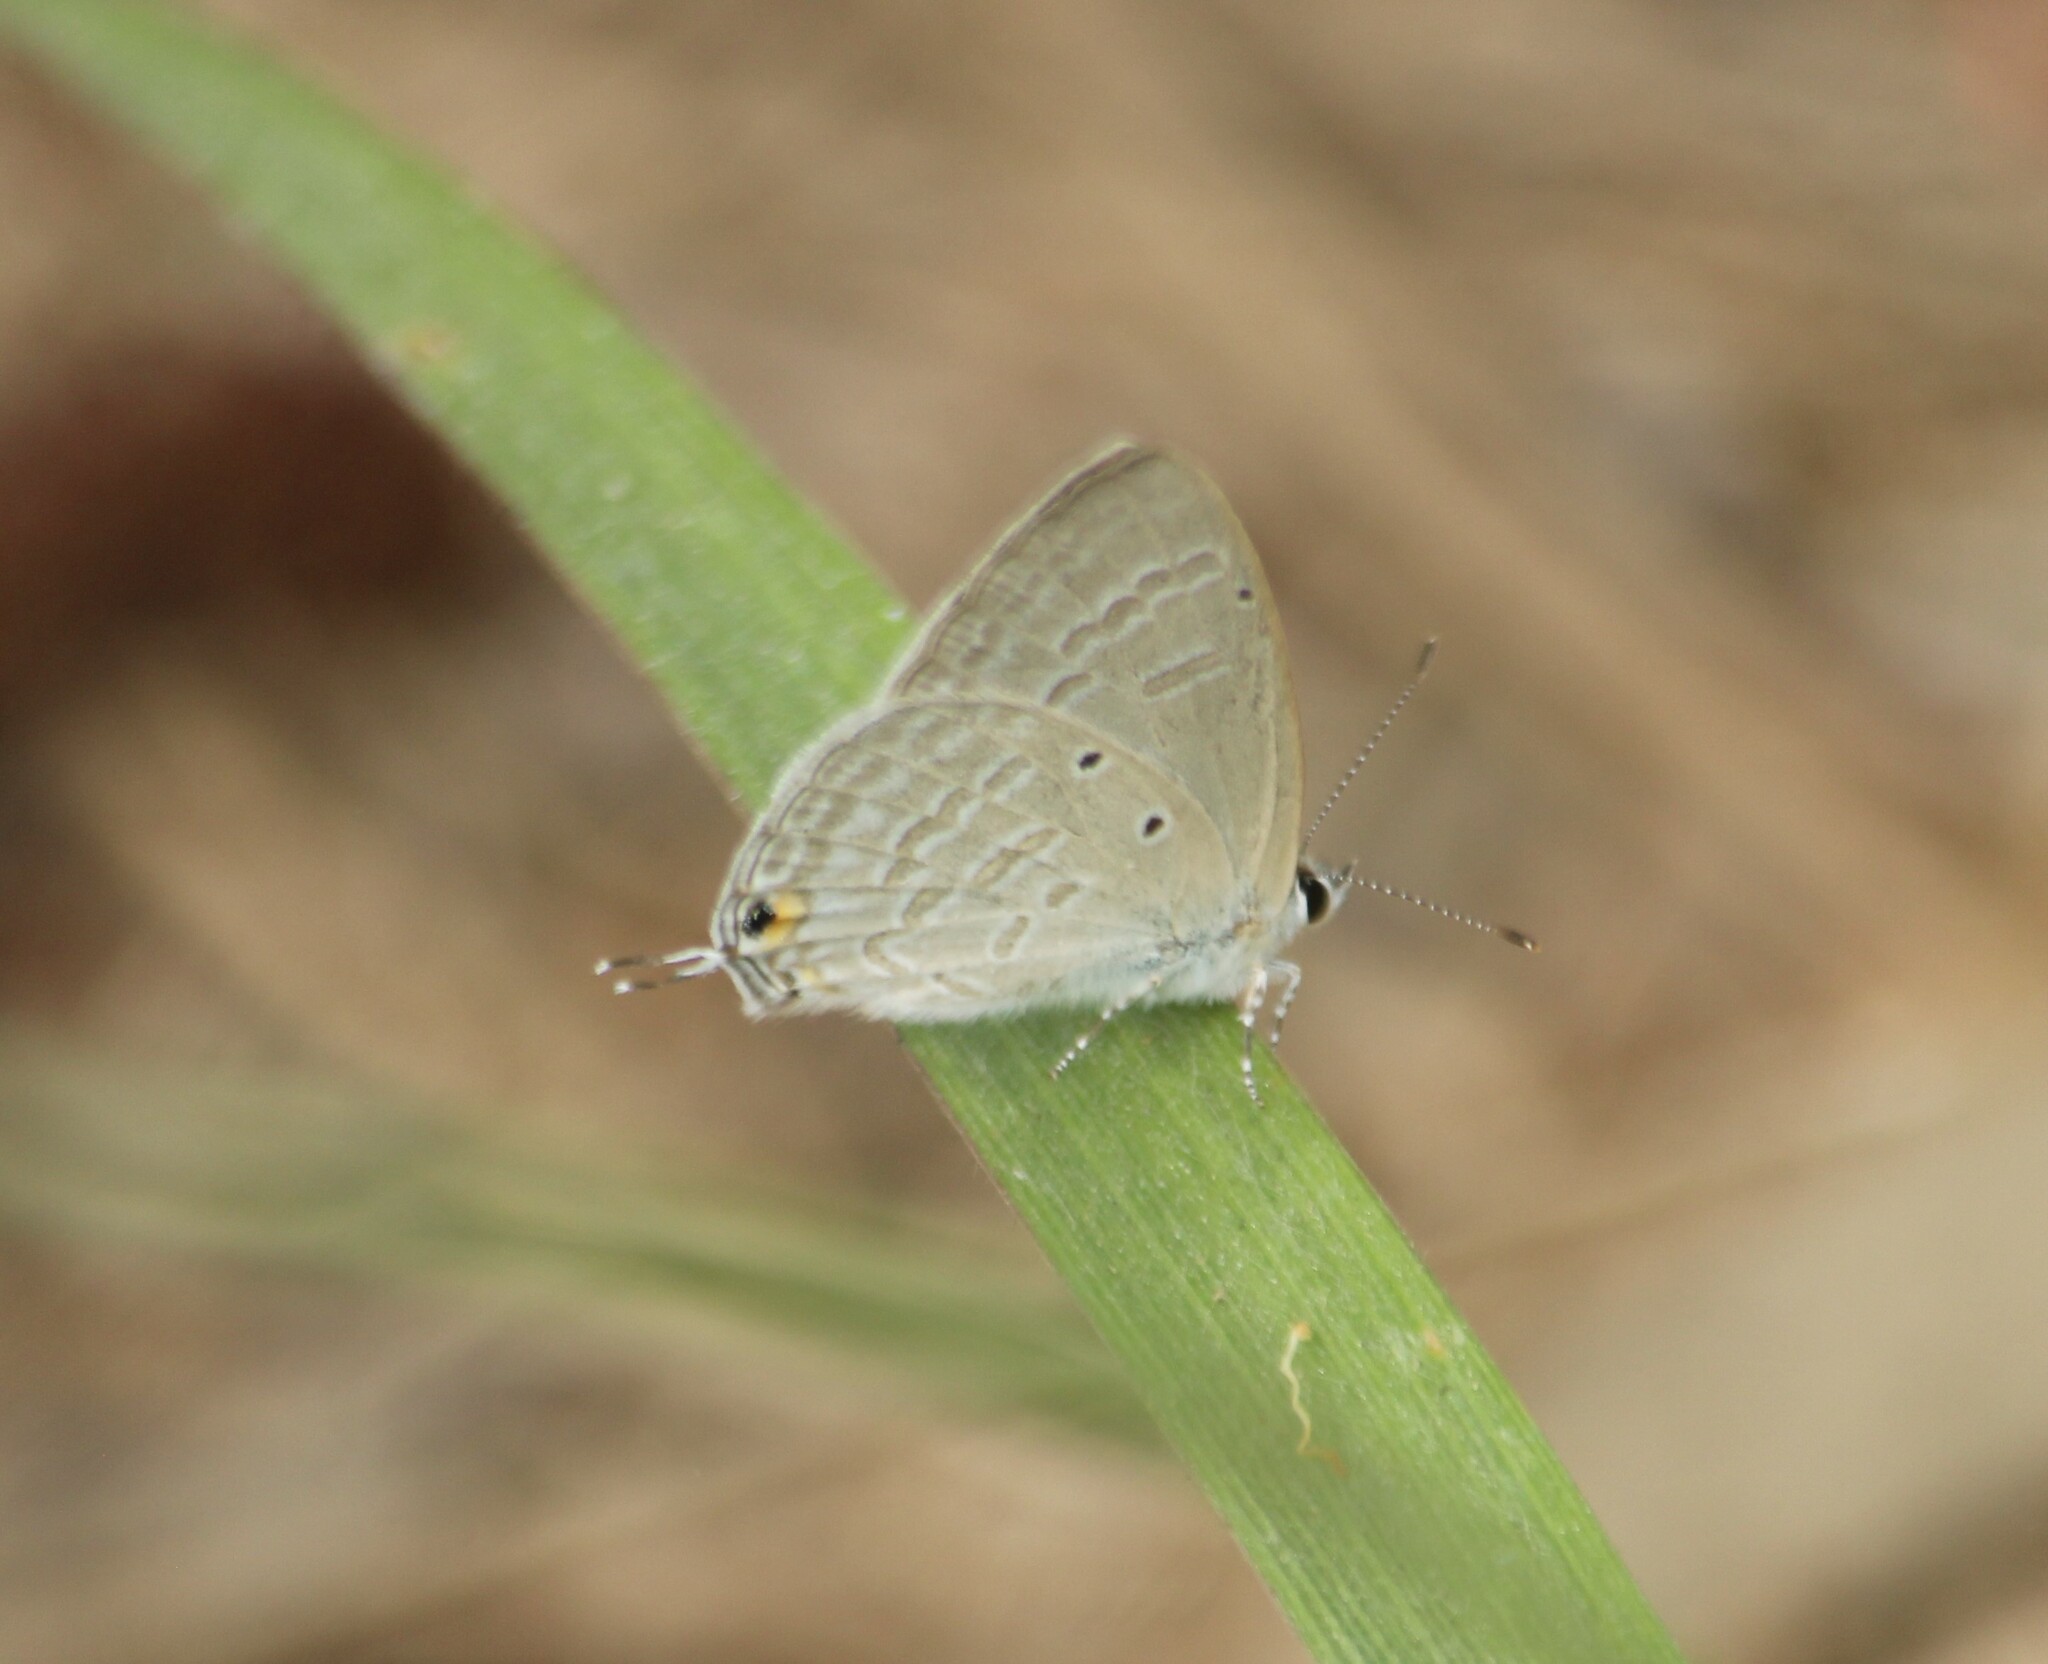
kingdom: Animalia
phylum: Arthropoda
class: Insecta
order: Lepidoptera
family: Lycaenidae
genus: Catochrysops
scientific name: Catochrysops strabo
